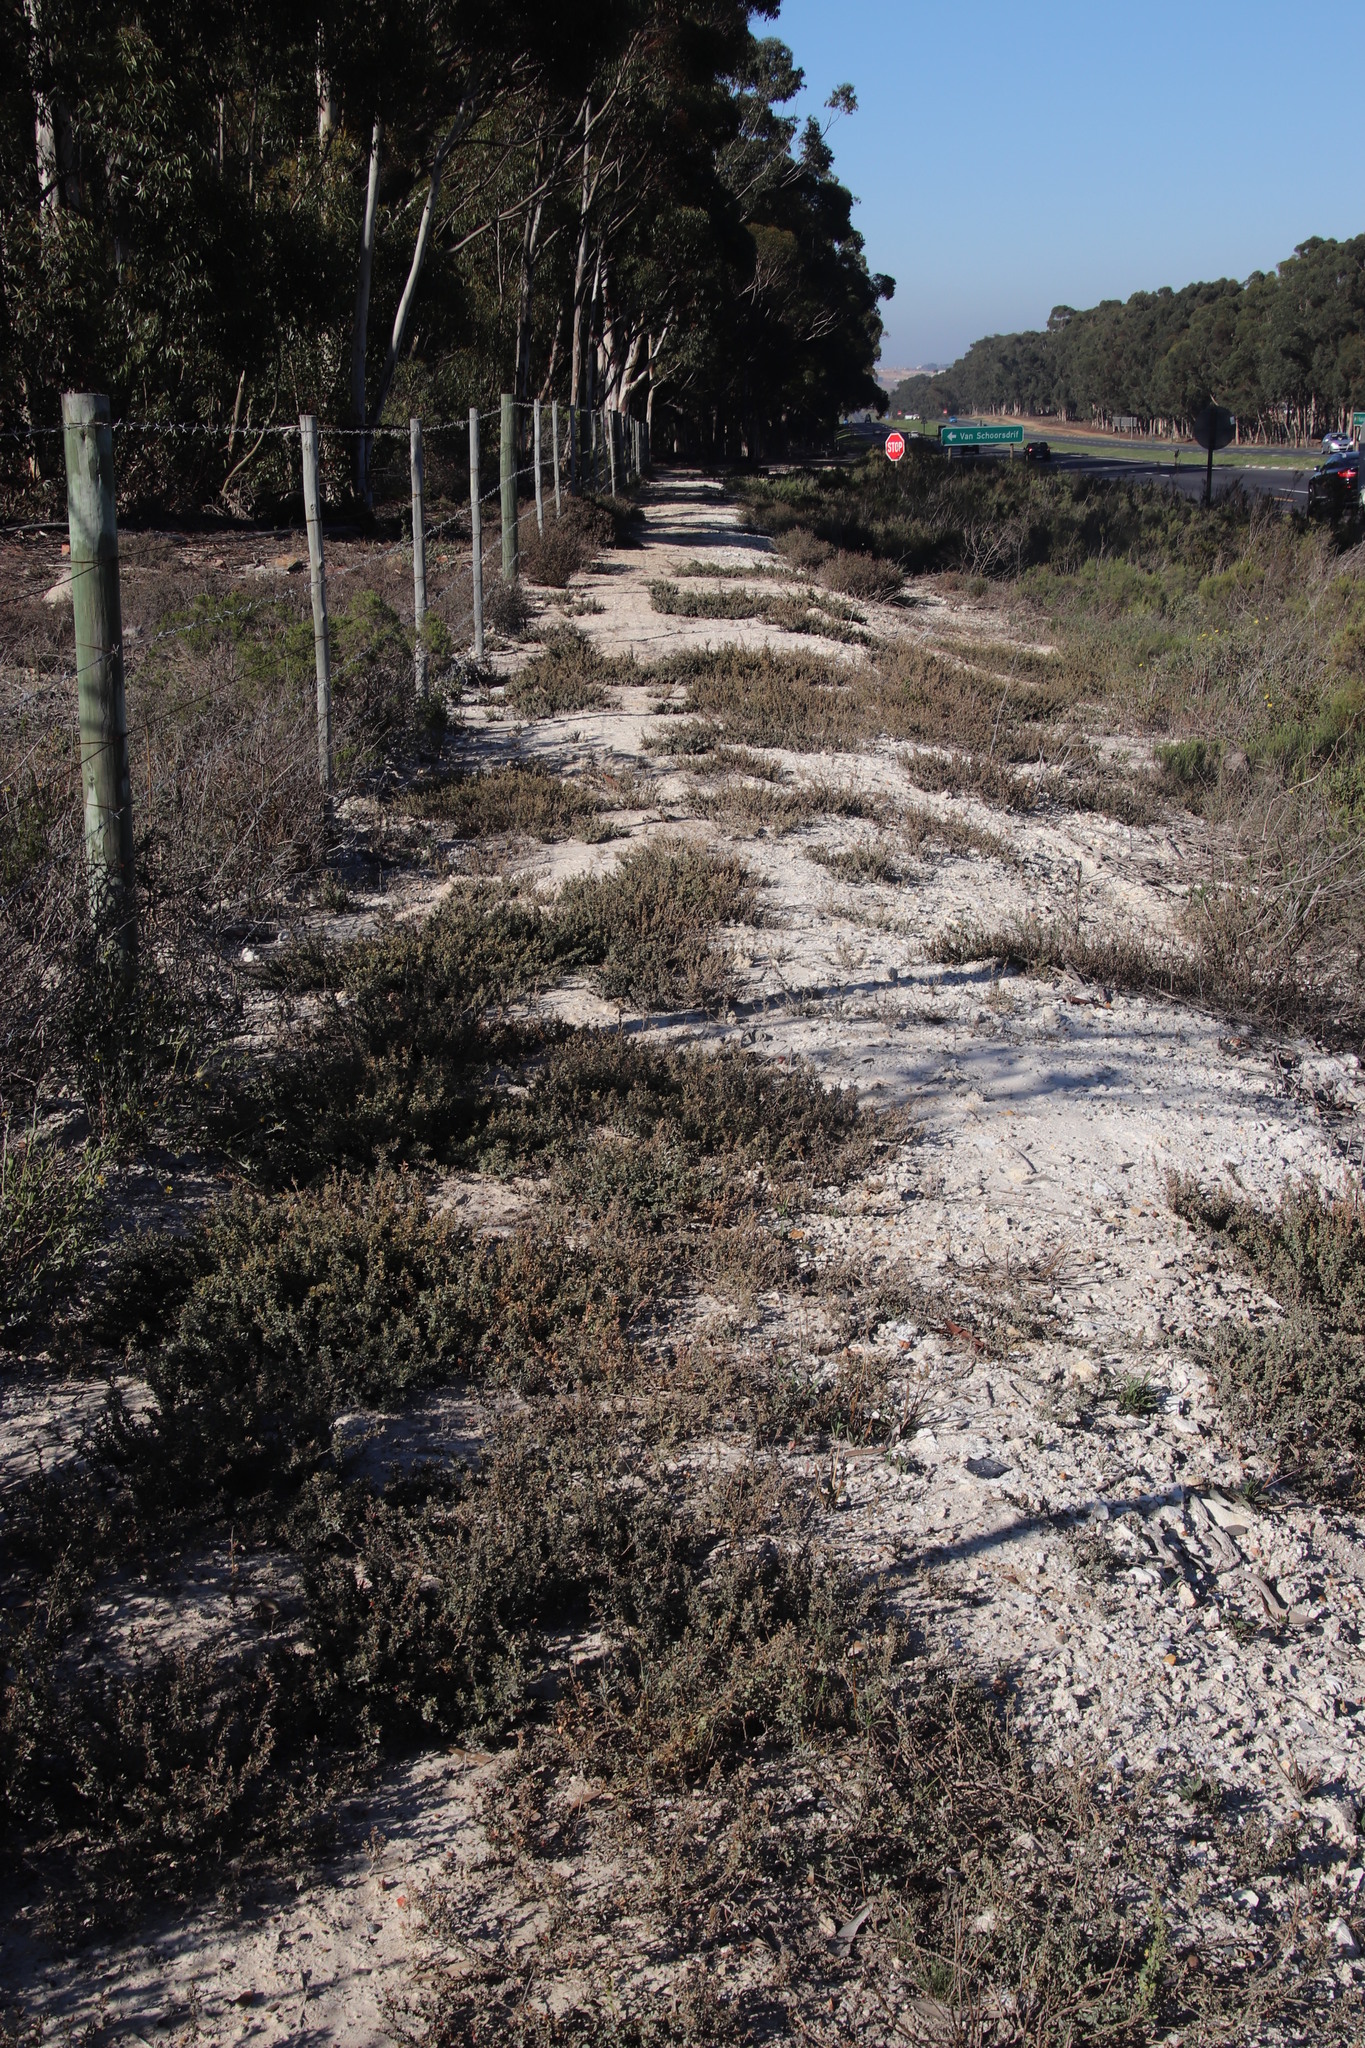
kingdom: Plantae
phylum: Tracheophyta
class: Magnoliopsida
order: Caryophyllales
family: Amaranthaceae
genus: Atriplex
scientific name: Atriplex semibaccata
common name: Australian saltbush
